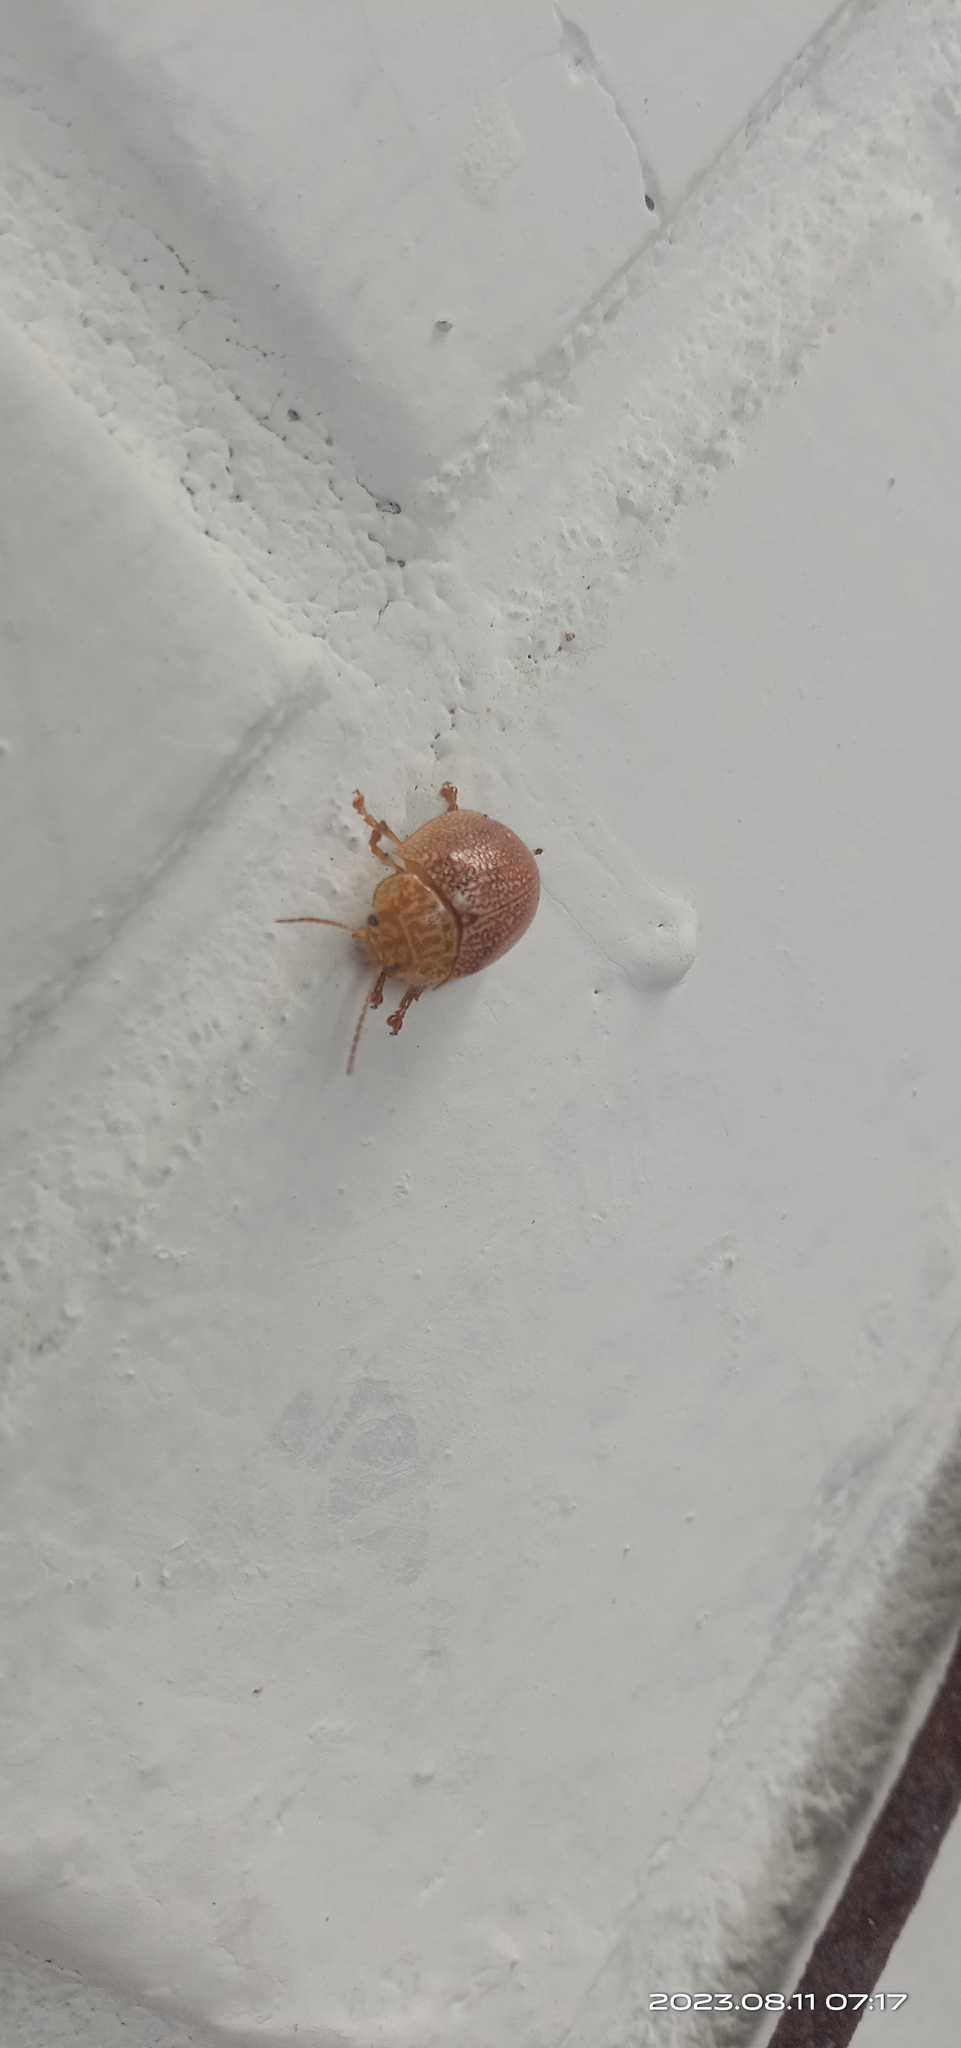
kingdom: Animalia
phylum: Arthropoda
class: Insecta
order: Coleoptera
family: Chrysomelidae
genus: Paropsis
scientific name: Paropsis
